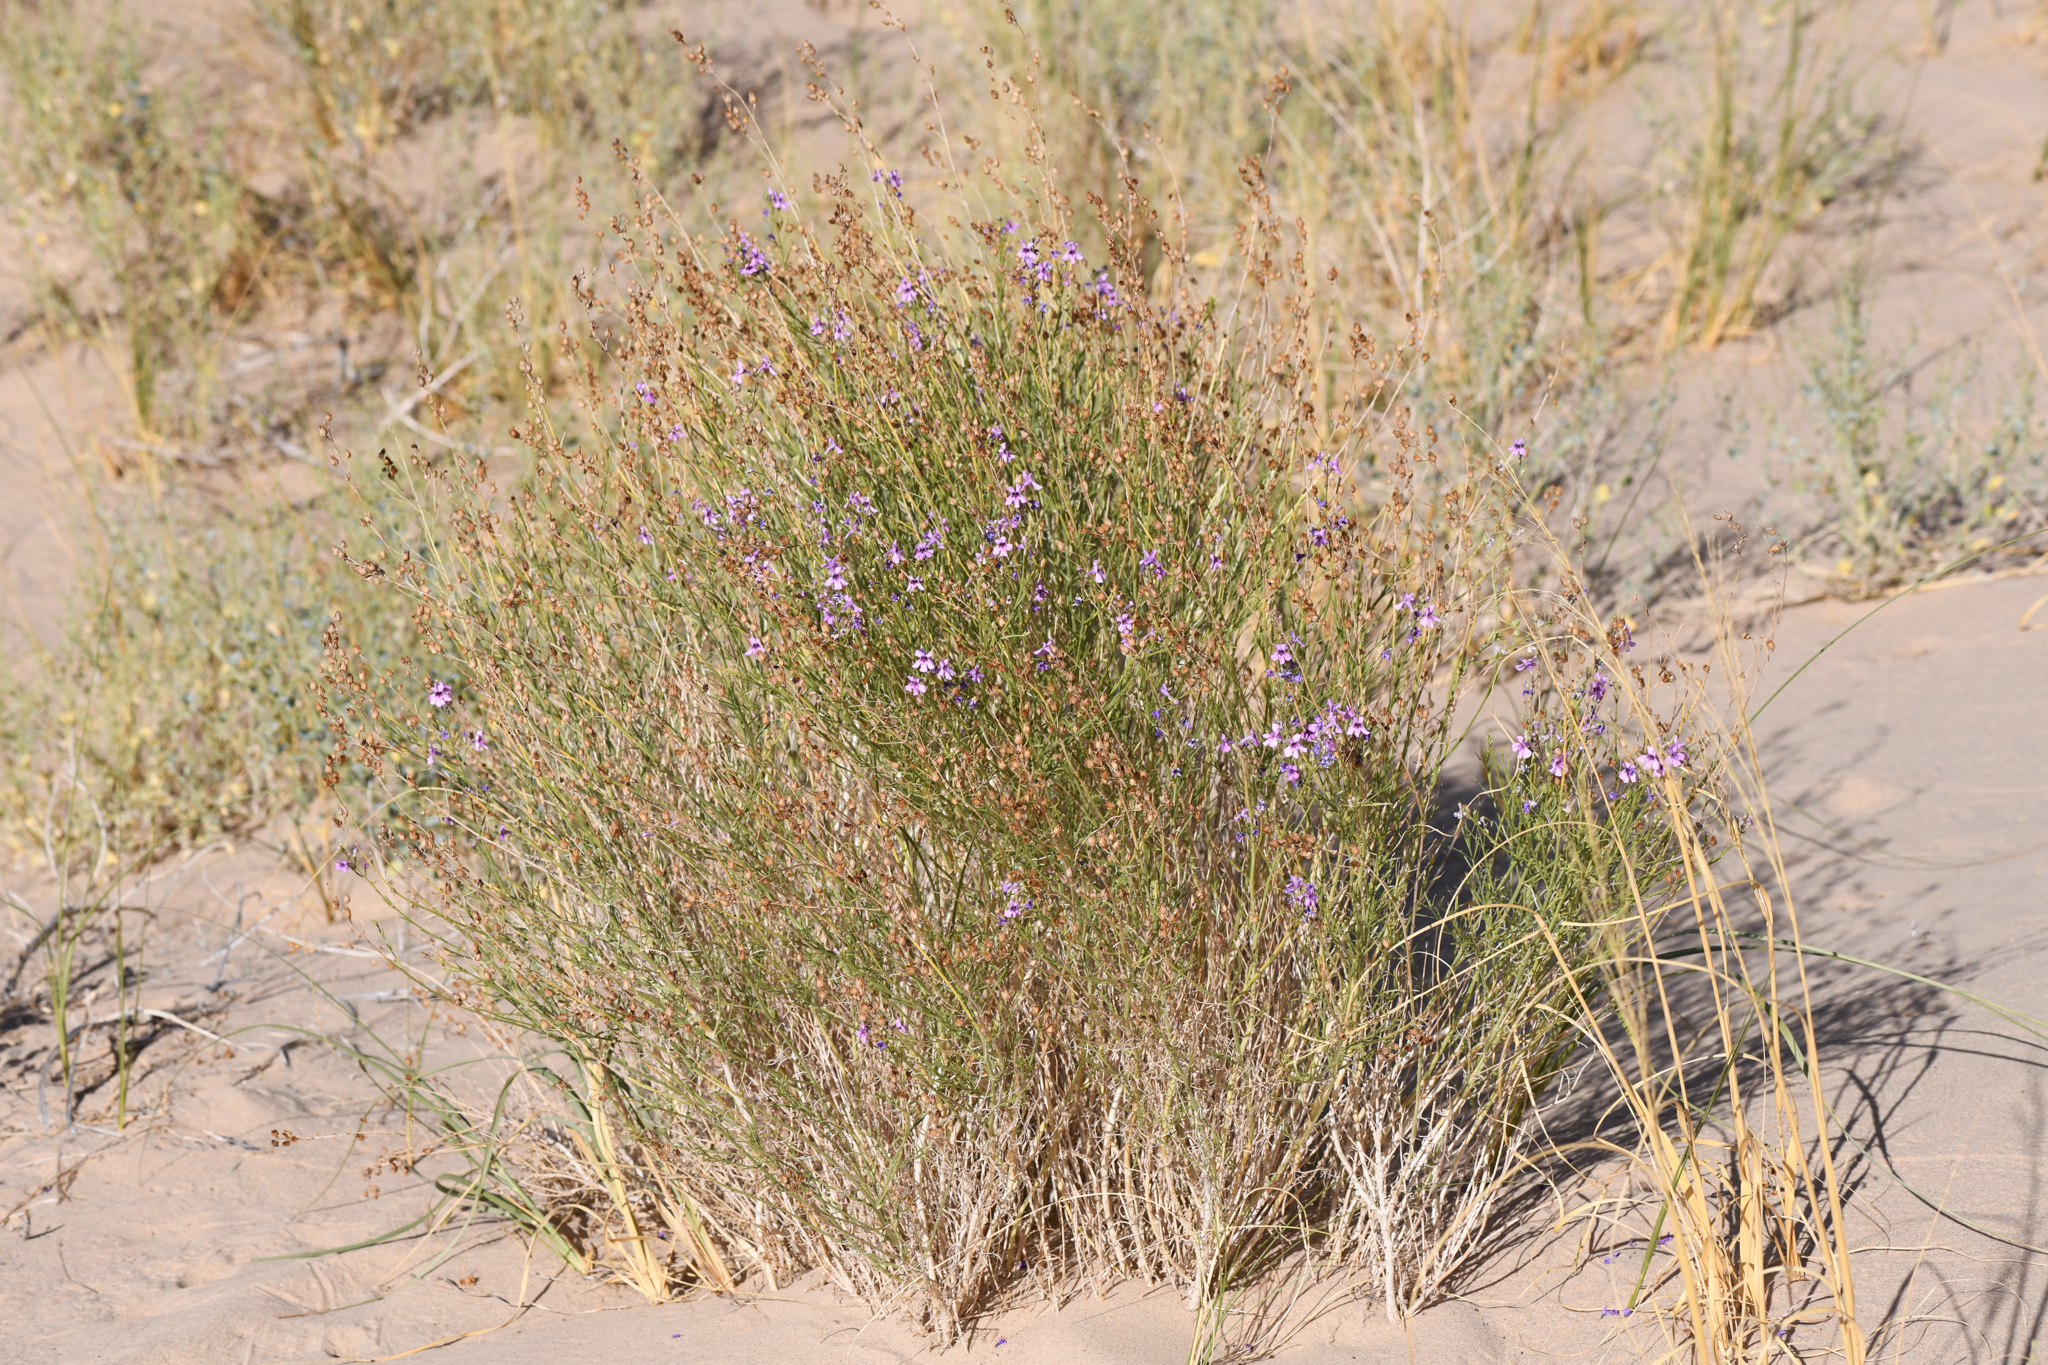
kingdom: Plantae
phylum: Tracheophyta
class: Magnoliopsida
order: Lamiales
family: Plantaginaceae
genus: Penstemon
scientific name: Penstemon thurberi
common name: Thurber's beardtongue
